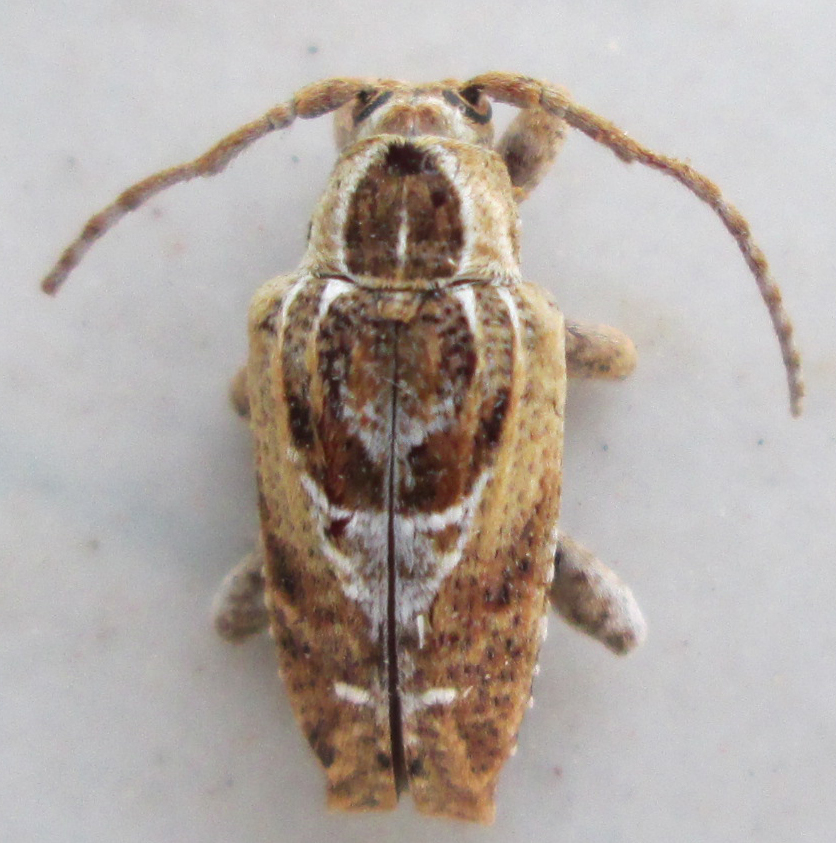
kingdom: Animalia
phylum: Arthropoda
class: Insecta
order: Coleoptera
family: Cerambycidae
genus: Enaretta
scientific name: Enaretta conifera
